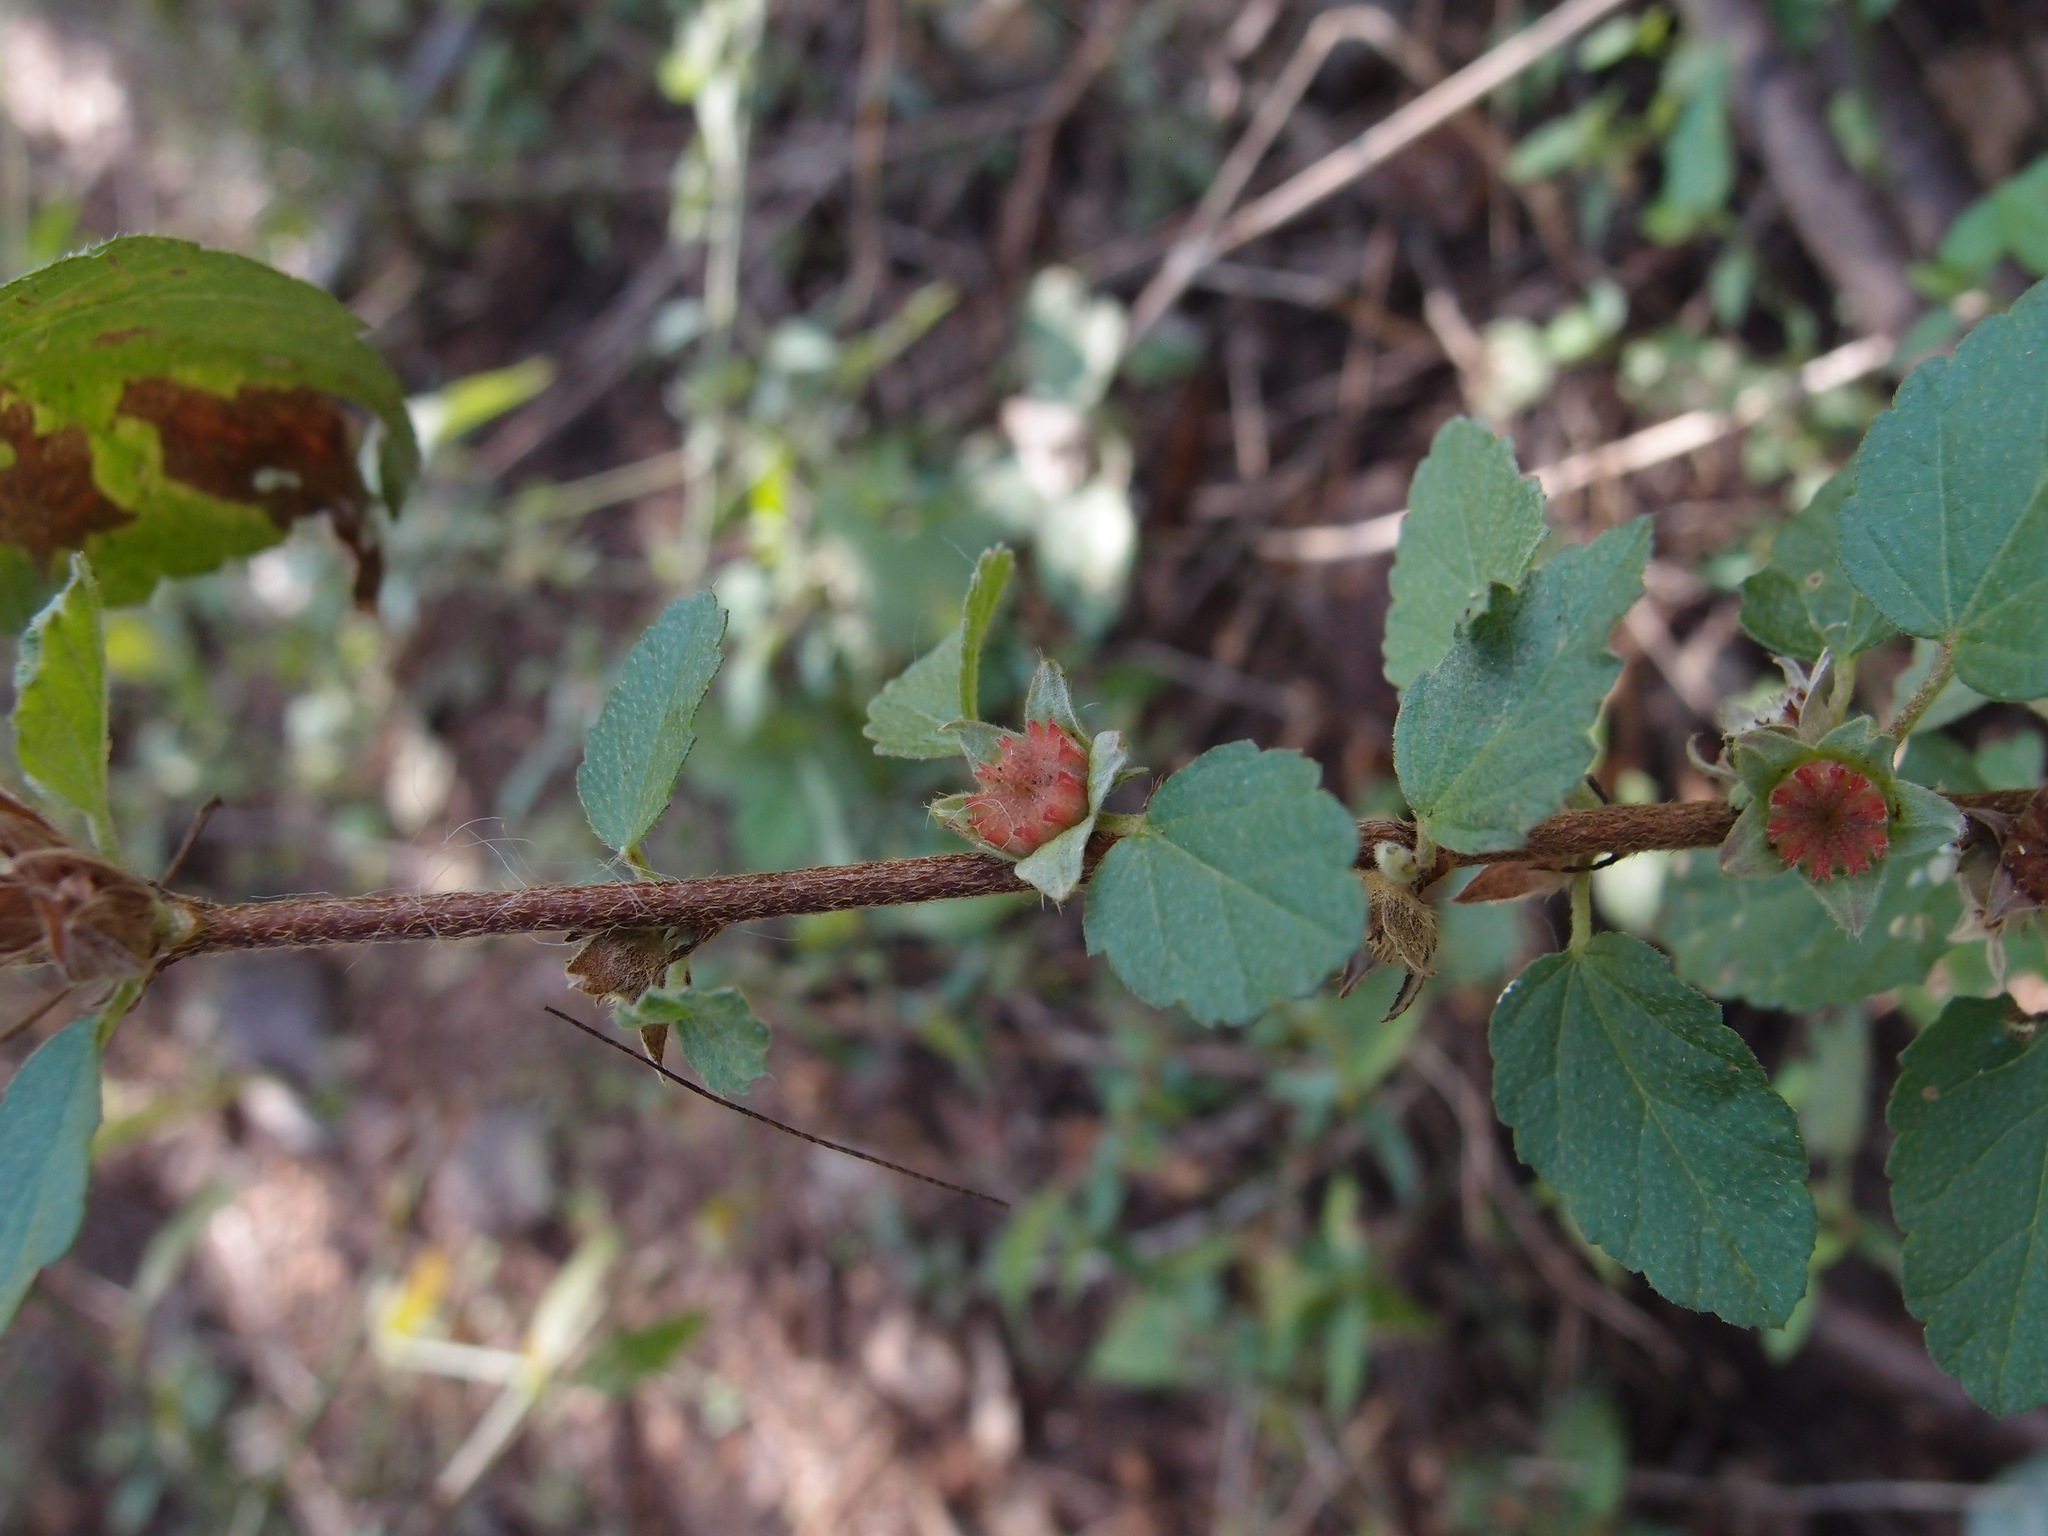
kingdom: Plantae
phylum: Tracheophyta
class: Magnoliopsida
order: Malvales
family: Malvaceae
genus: Malvastrum
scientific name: Malvastrum bicuspidatum
